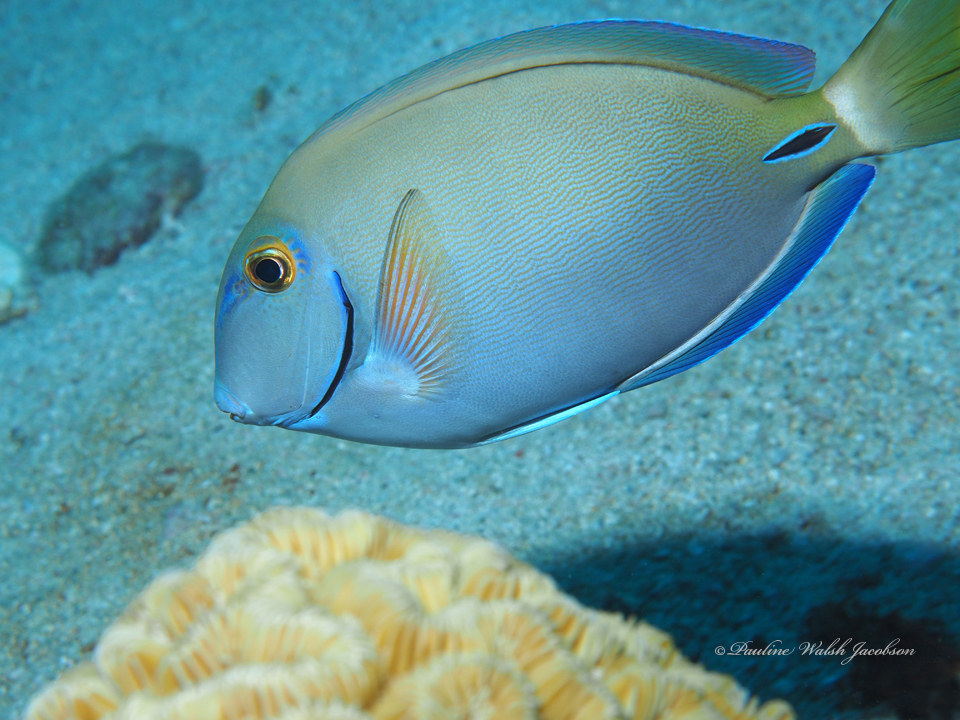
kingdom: Animalia
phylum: Chordata
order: Perciformes
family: Acanthuridae
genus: Acanthurus
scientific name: Acanthurus bahianus
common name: Ocean surgeon
